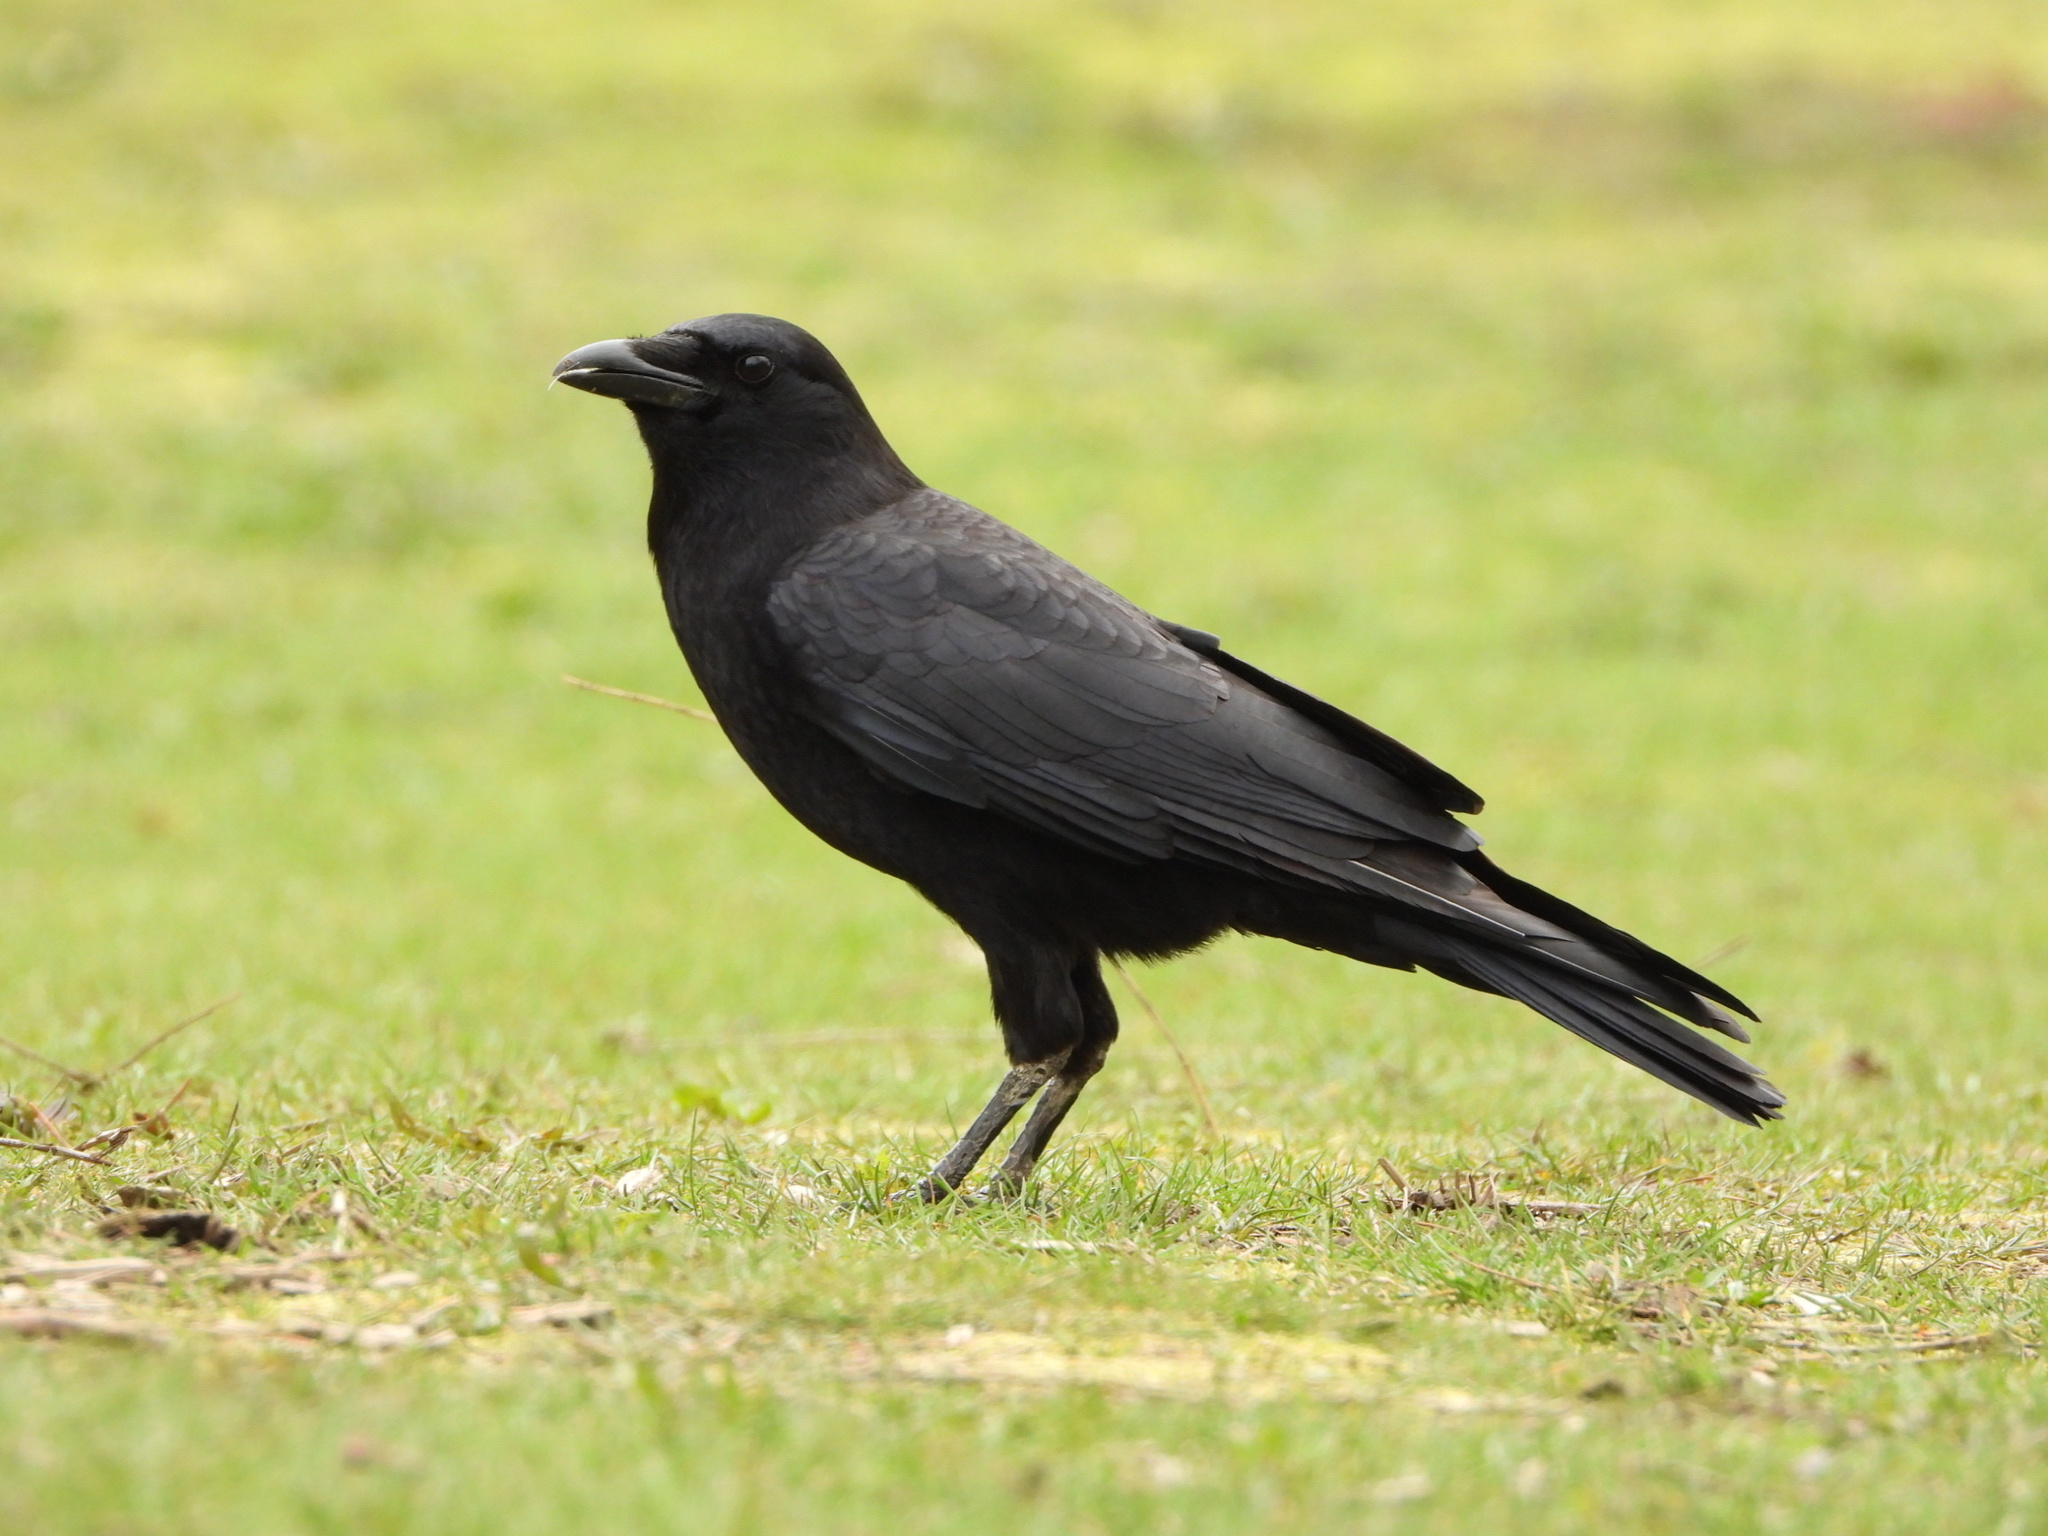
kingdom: Animalia
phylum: Chordata
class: Aves
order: Passeriformes
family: Corvidae
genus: Corvus
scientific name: Corvus brachyrhynchos
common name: American crow
